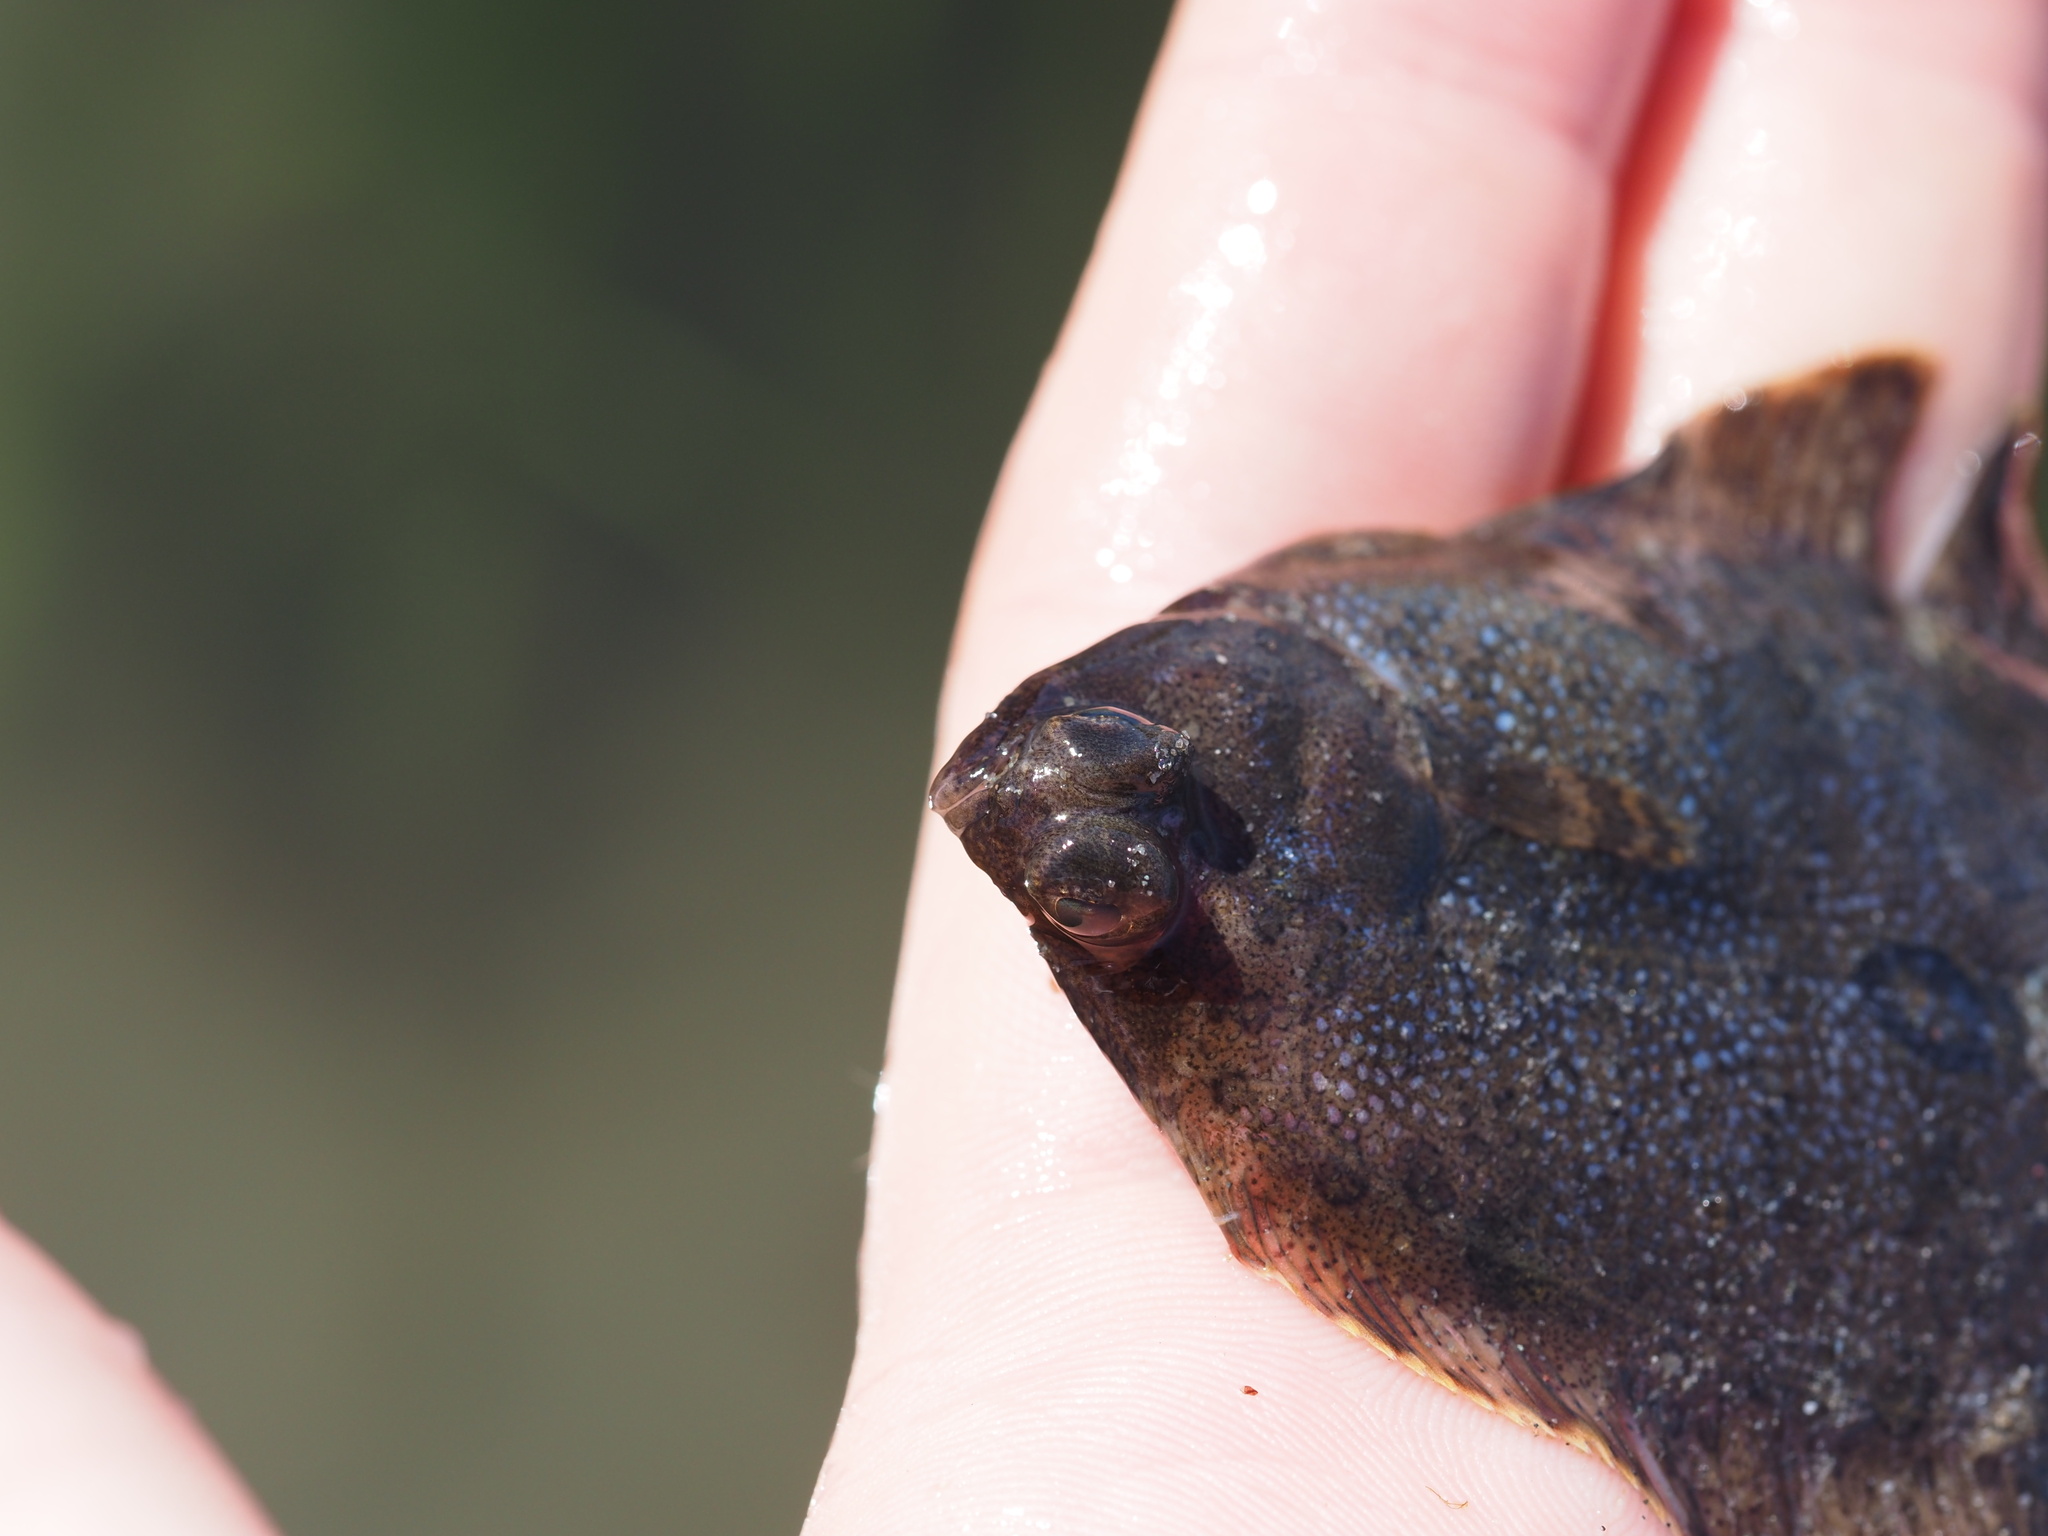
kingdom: Animalia
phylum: Chordata
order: Pleuronectiformes
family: Pleuronectidae
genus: Pleuronichthys
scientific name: Pleuronichthys coenosus
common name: C-o sole
